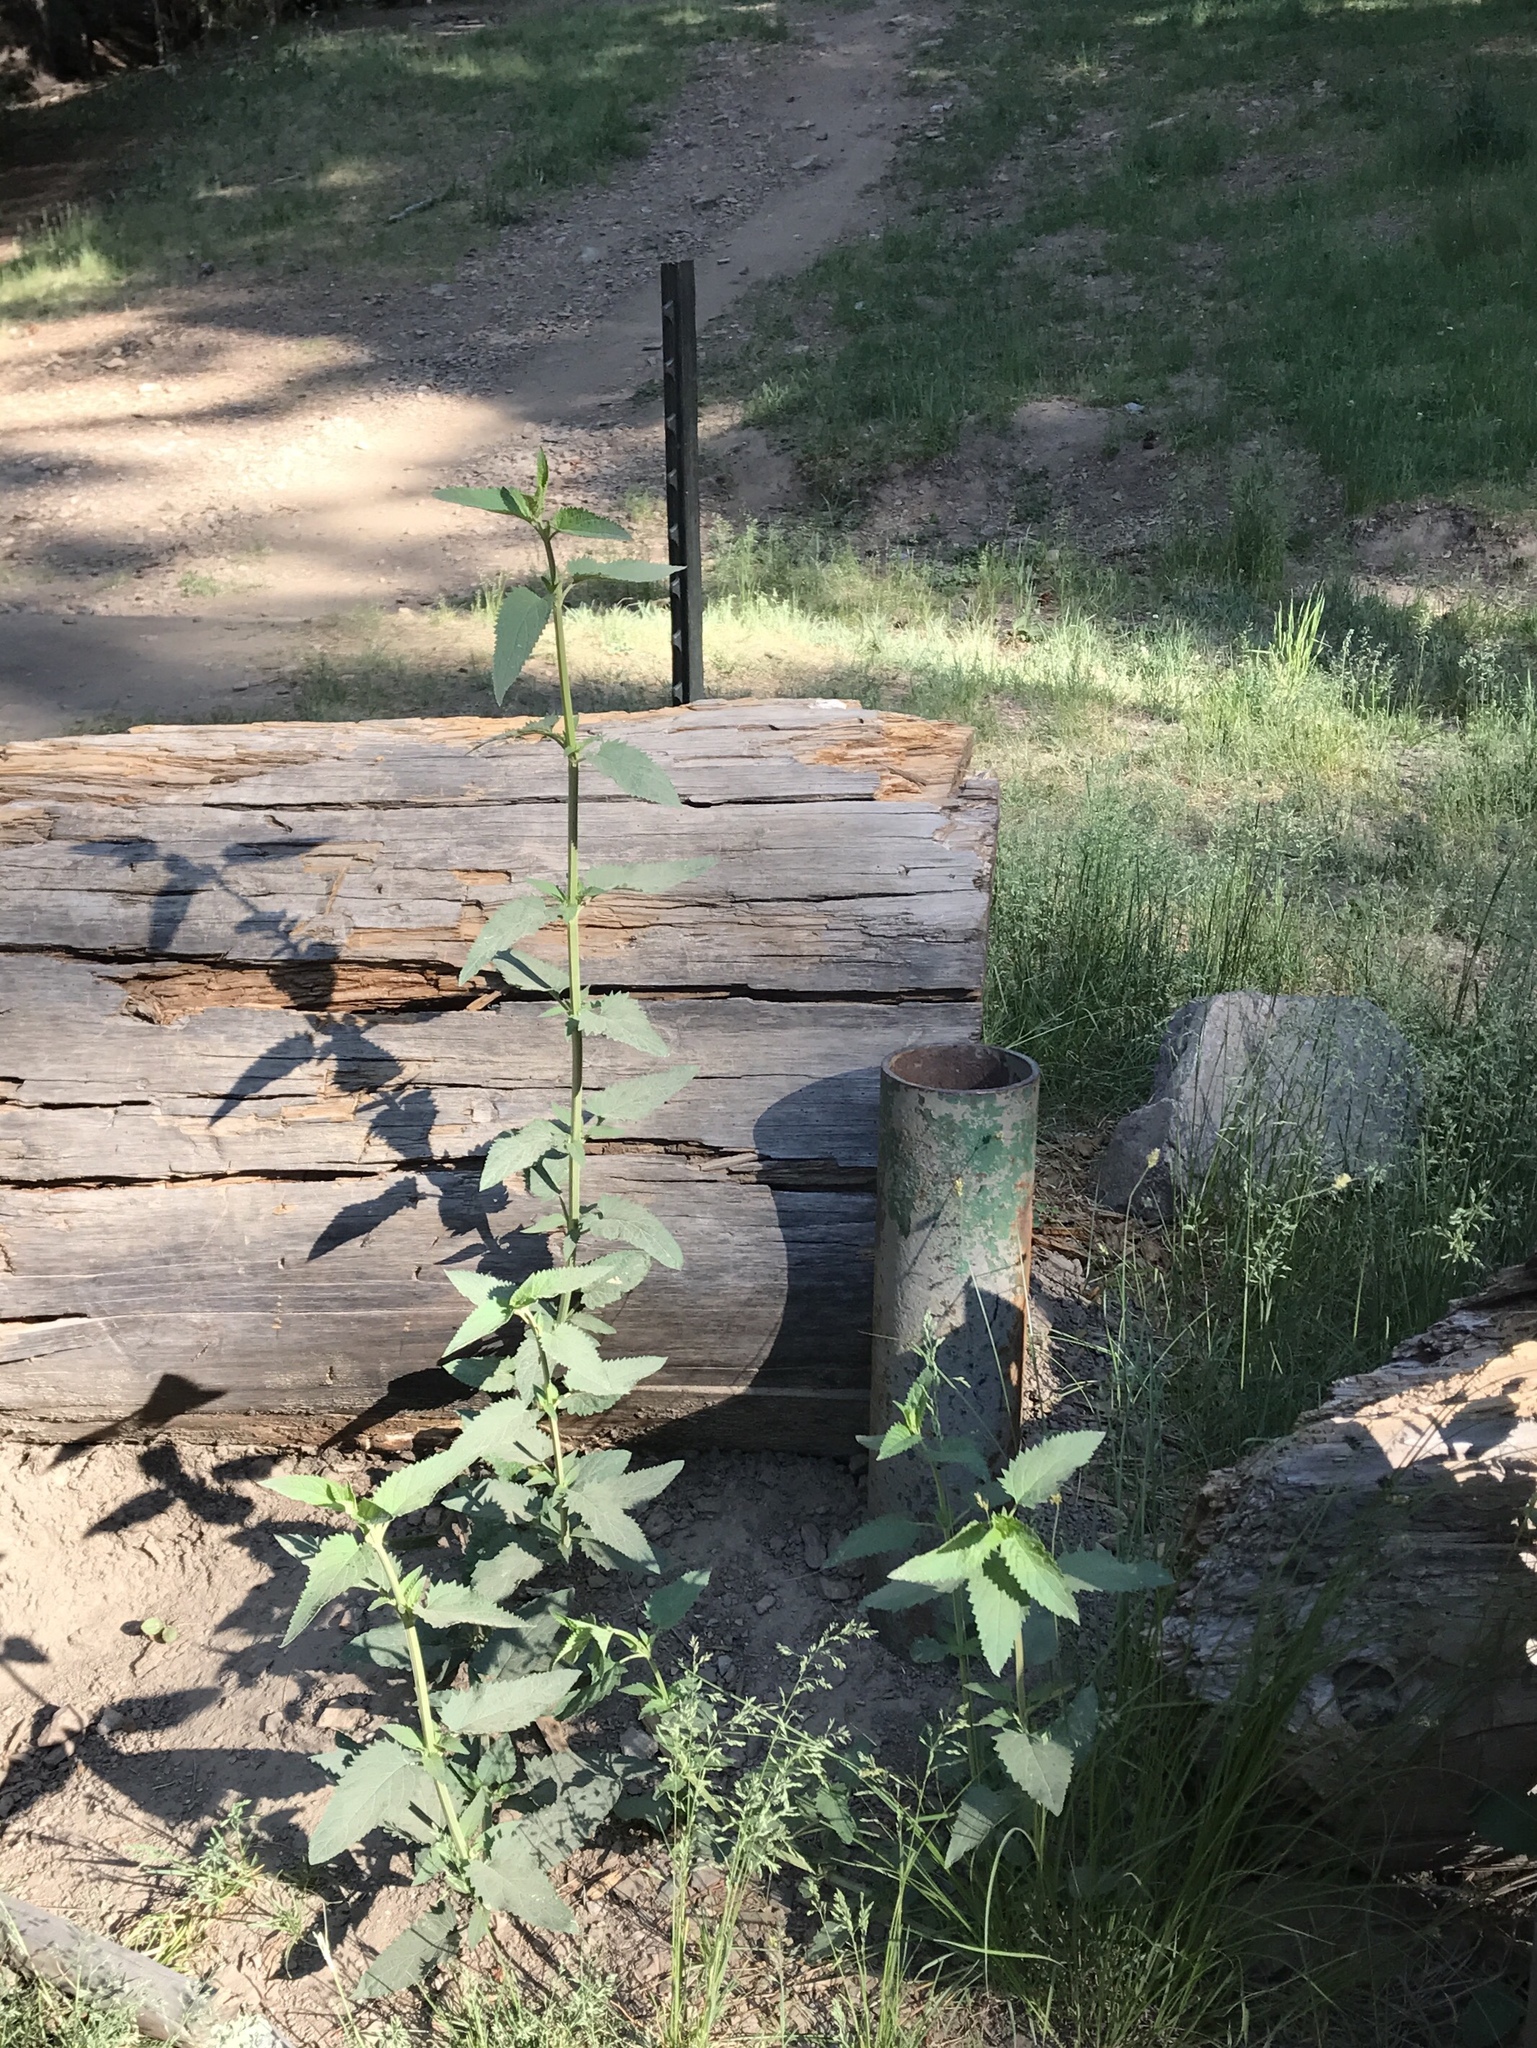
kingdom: Plantae
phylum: Tracheophyta
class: Magnoliopsida
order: Lamiales
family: Scrophulariaceae
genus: Scrophularia
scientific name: Scrophularia parviflora
